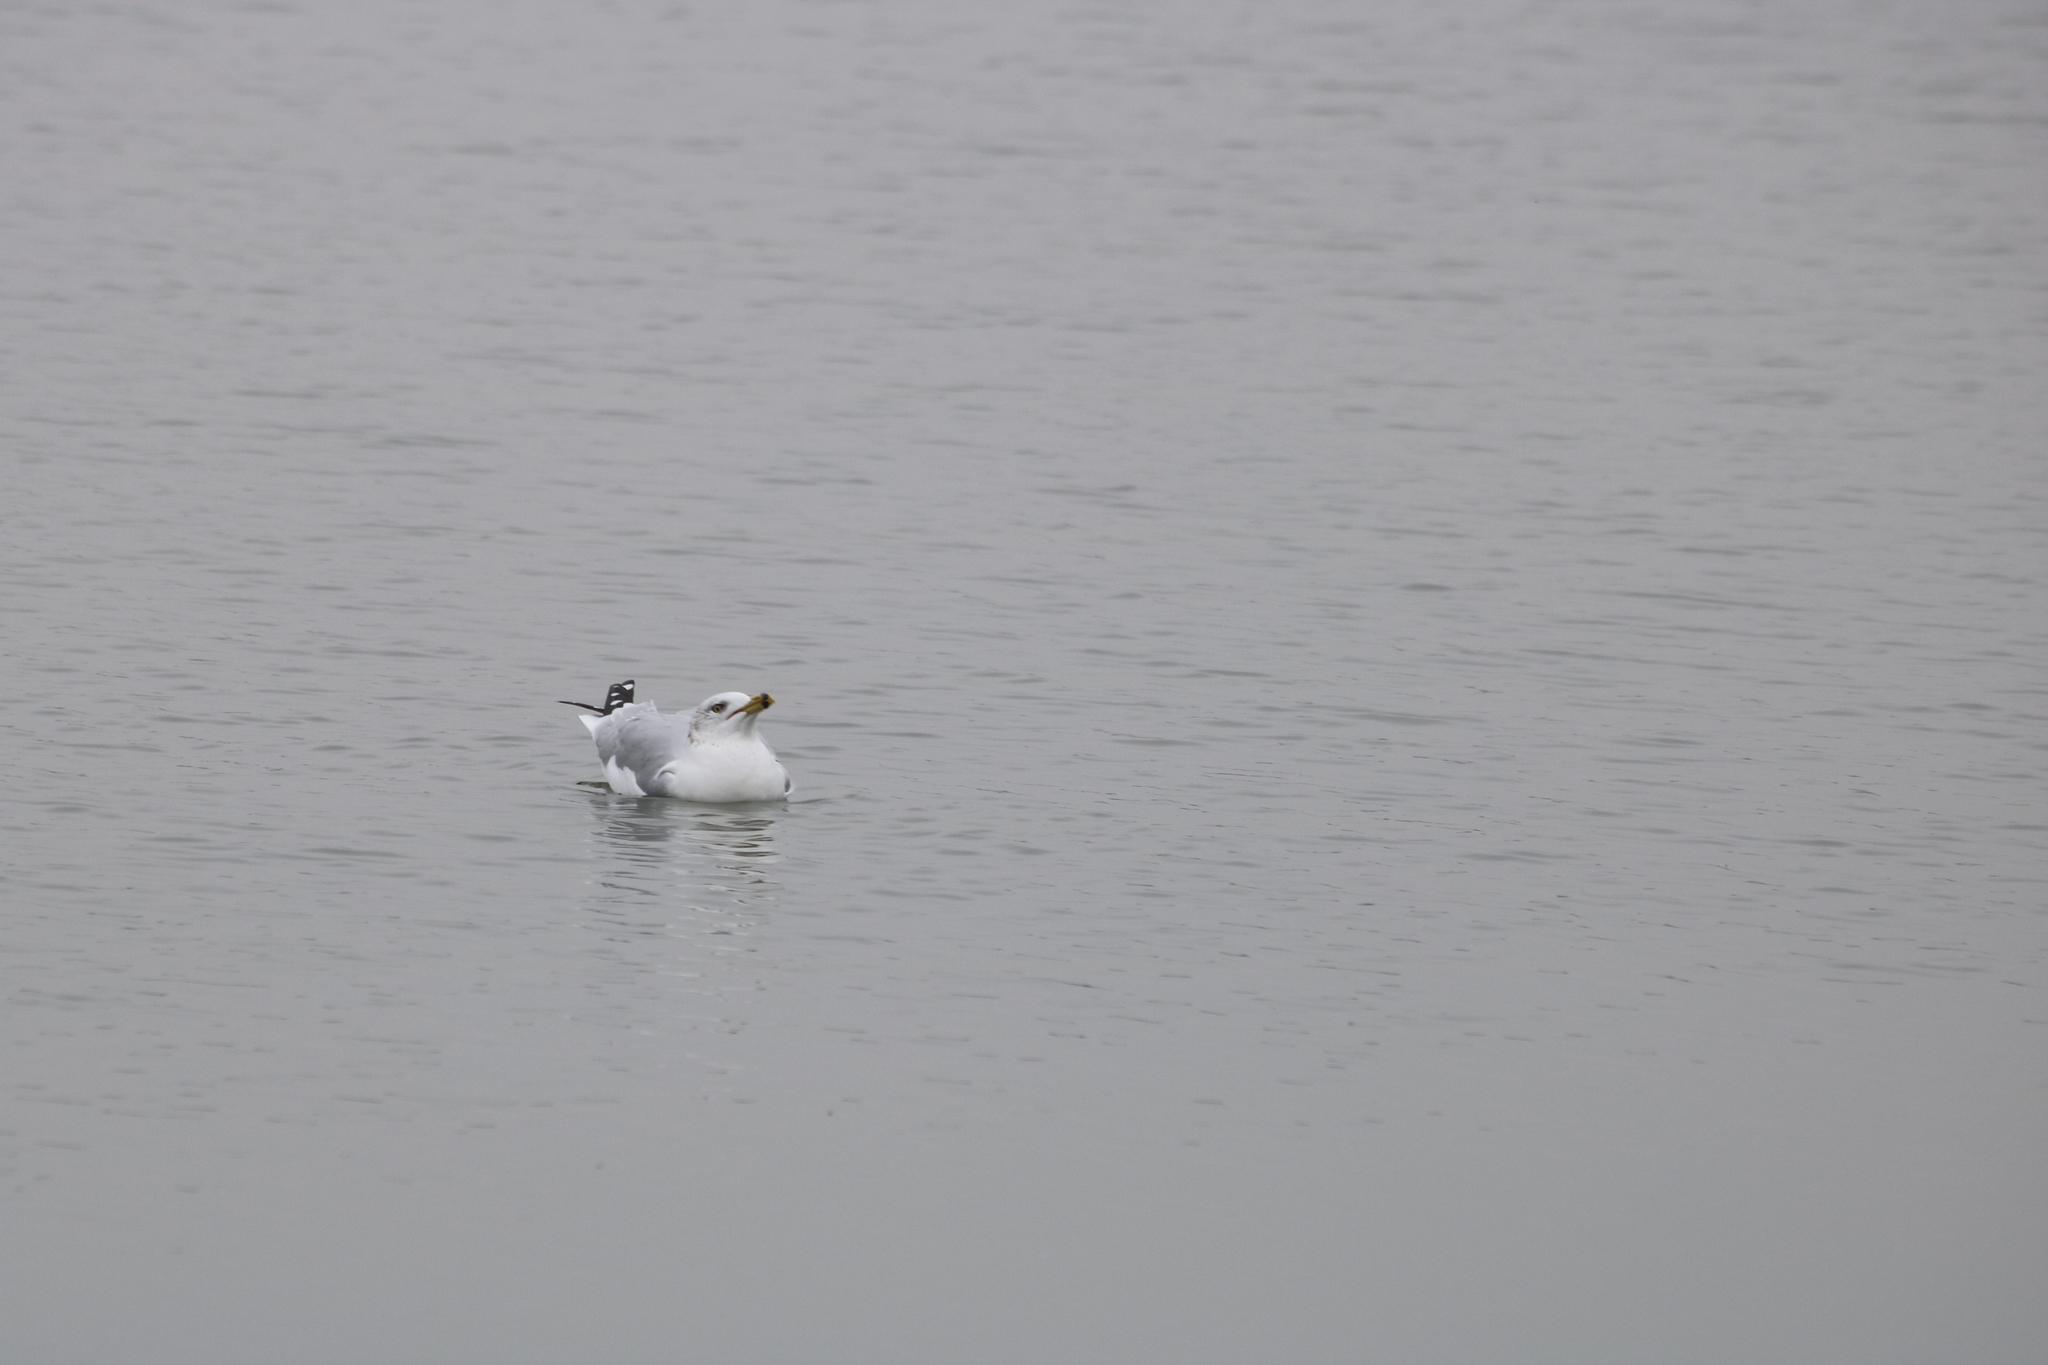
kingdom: Animalia
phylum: Chordata
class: Aves
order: Charadriiformes
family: Laridae
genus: Larus
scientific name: Larus delawarensis
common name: Ring-billed gull
